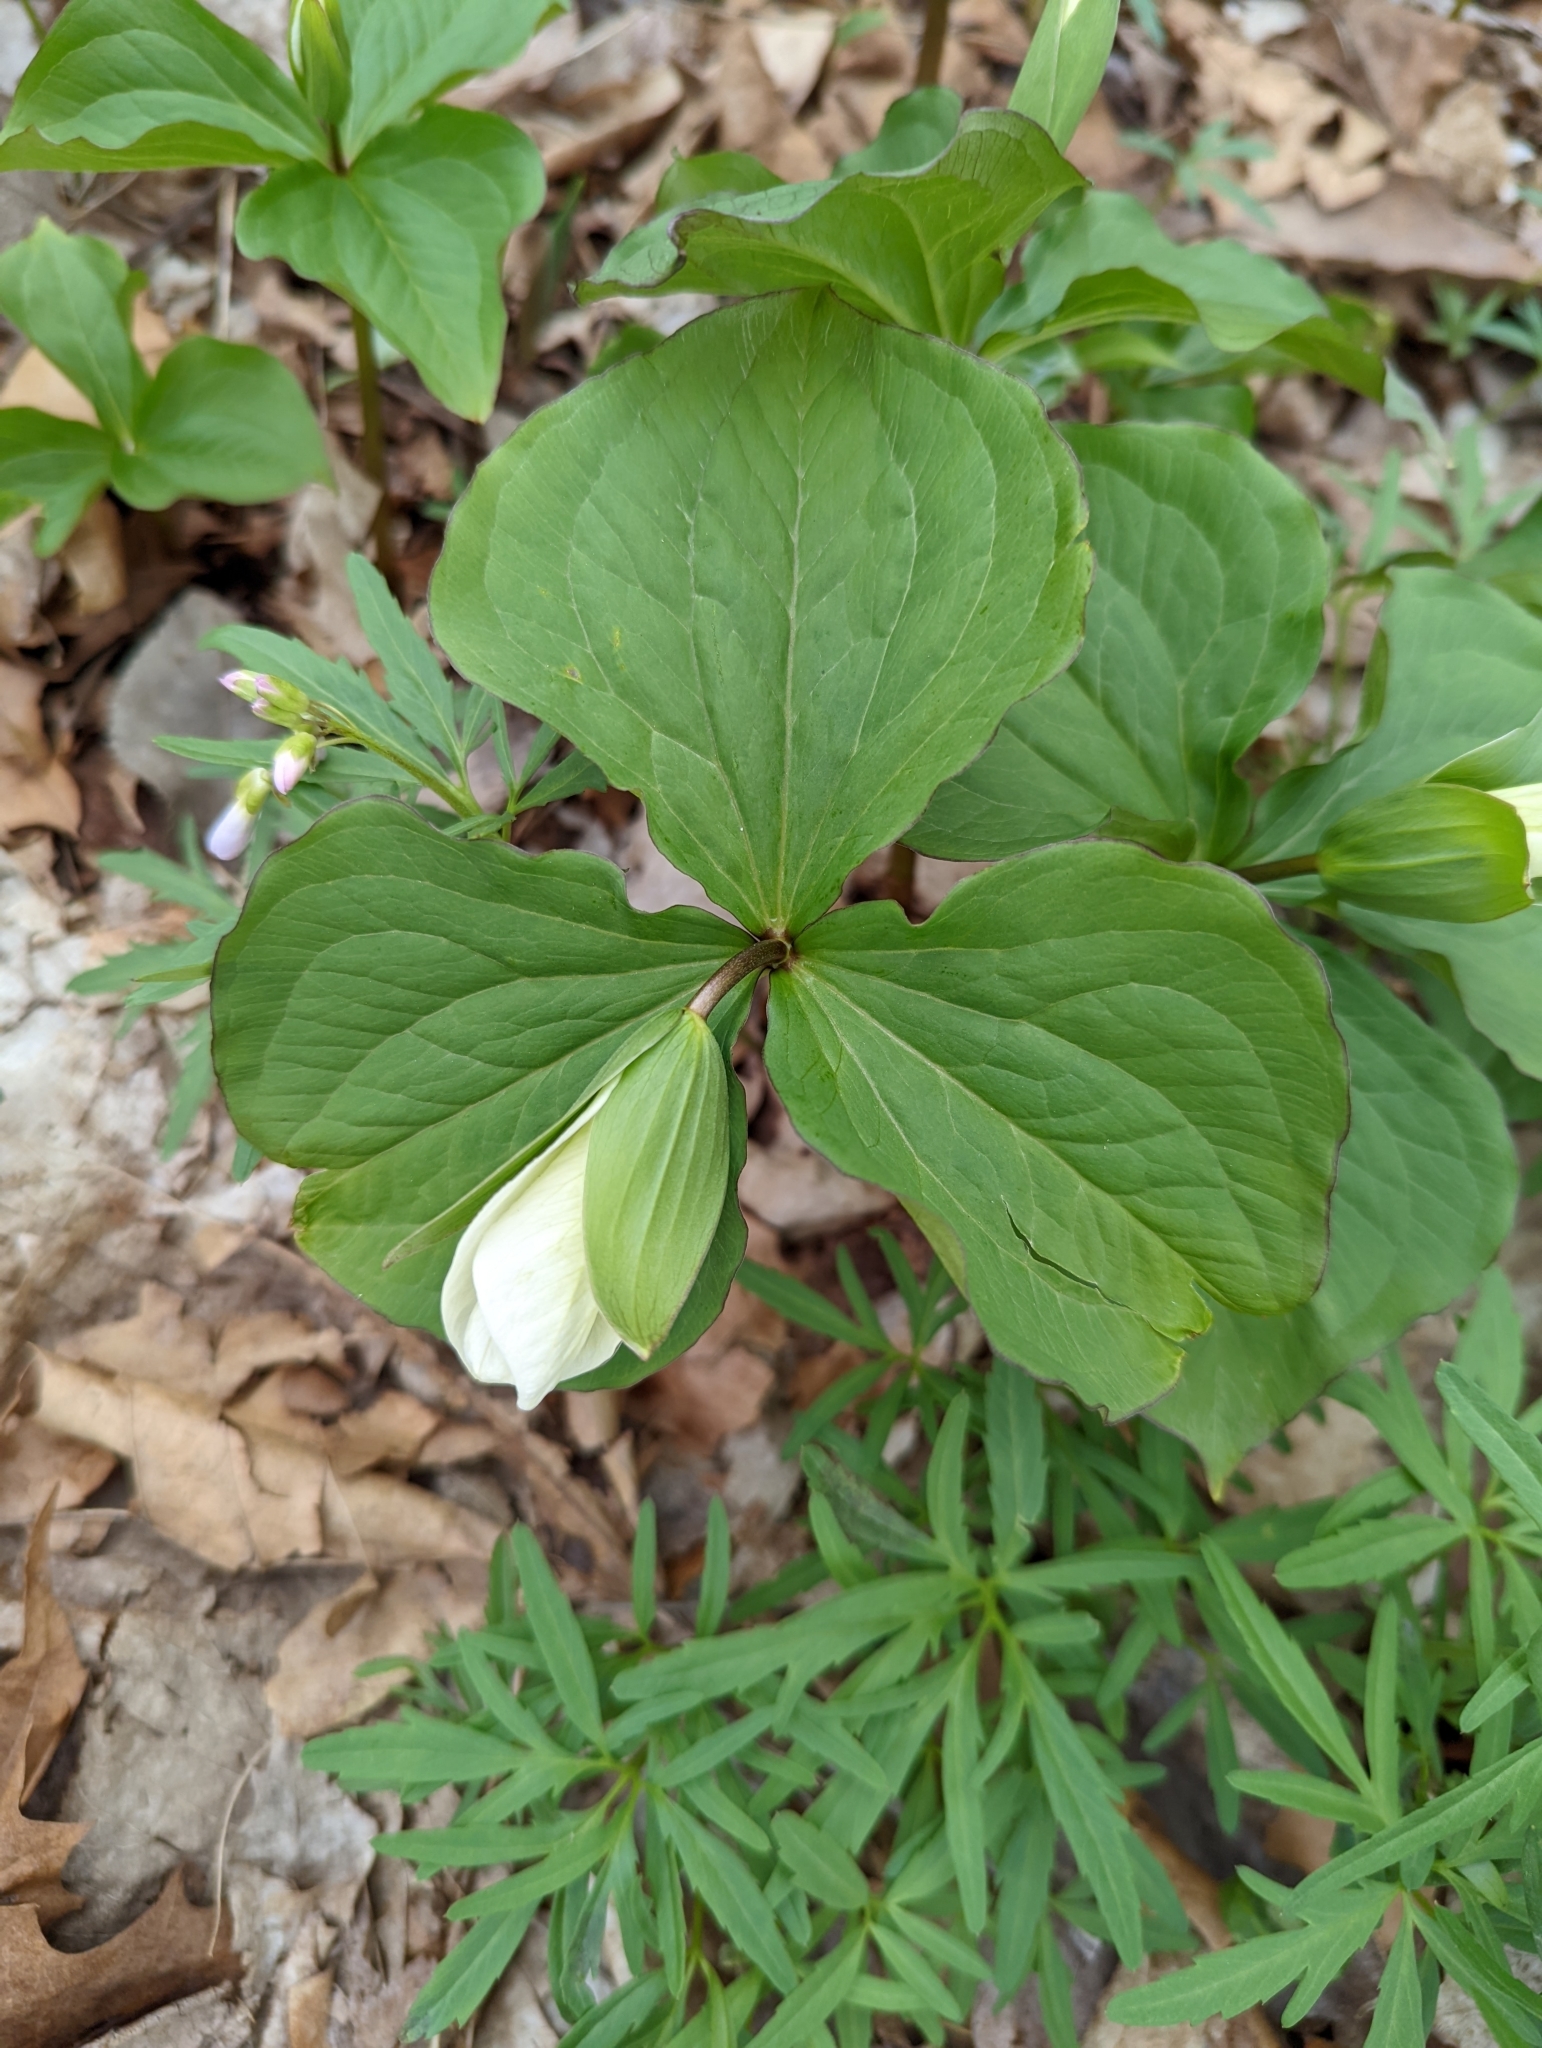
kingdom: Plantae
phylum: Tracheophyta
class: Liliopsida
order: Liliales
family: Melanthiaceae
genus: Trillium
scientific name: Trillium grandiflorum
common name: Great white trillium
